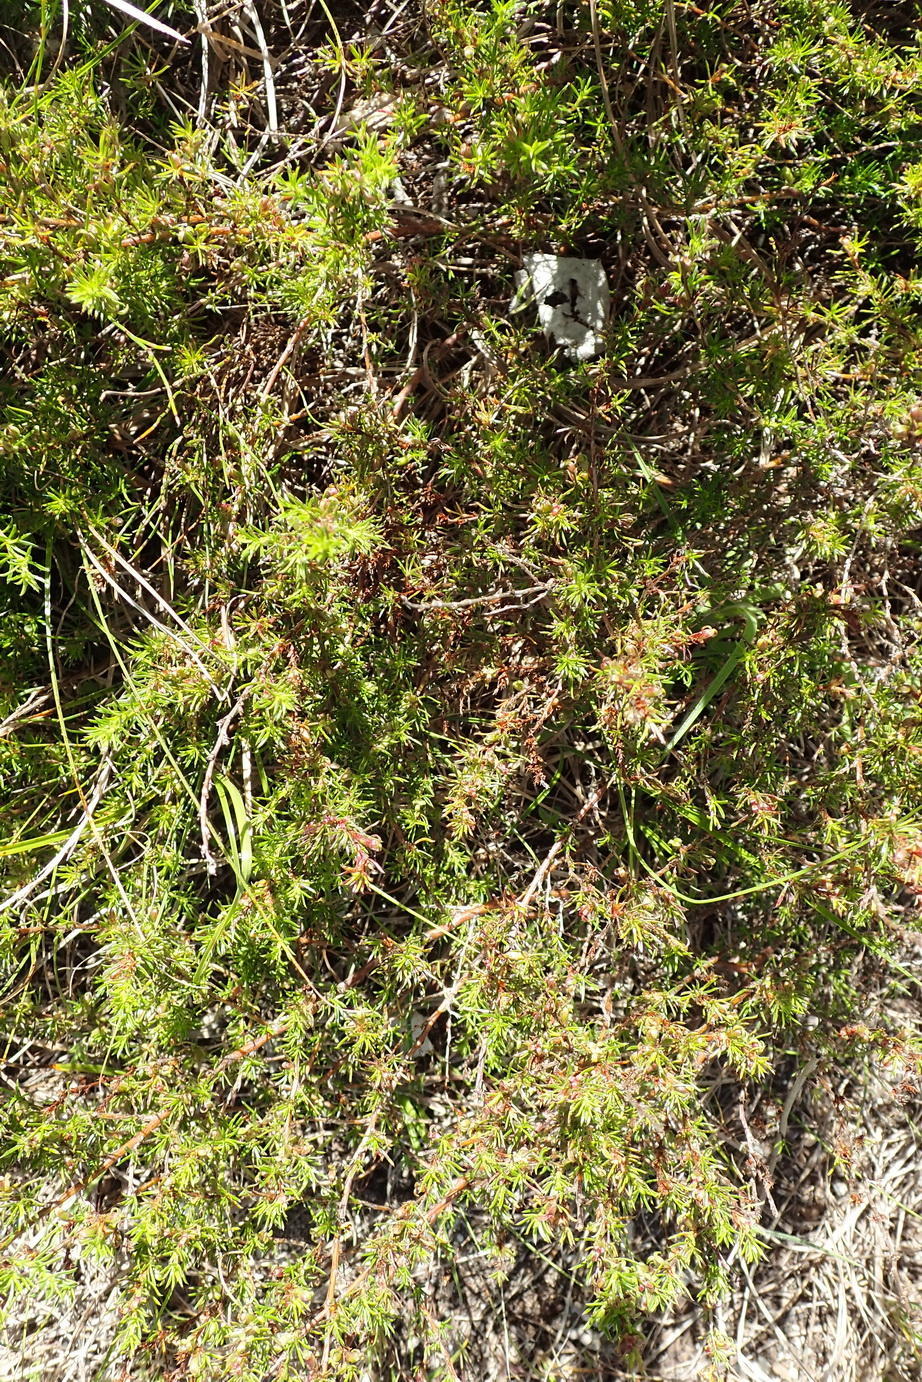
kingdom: Plantae
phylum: Tracheophyta
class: Magnoliopsida
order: Rosales
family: Rosaceae
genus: Cliffortia
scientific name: Cliffortia filifolia
